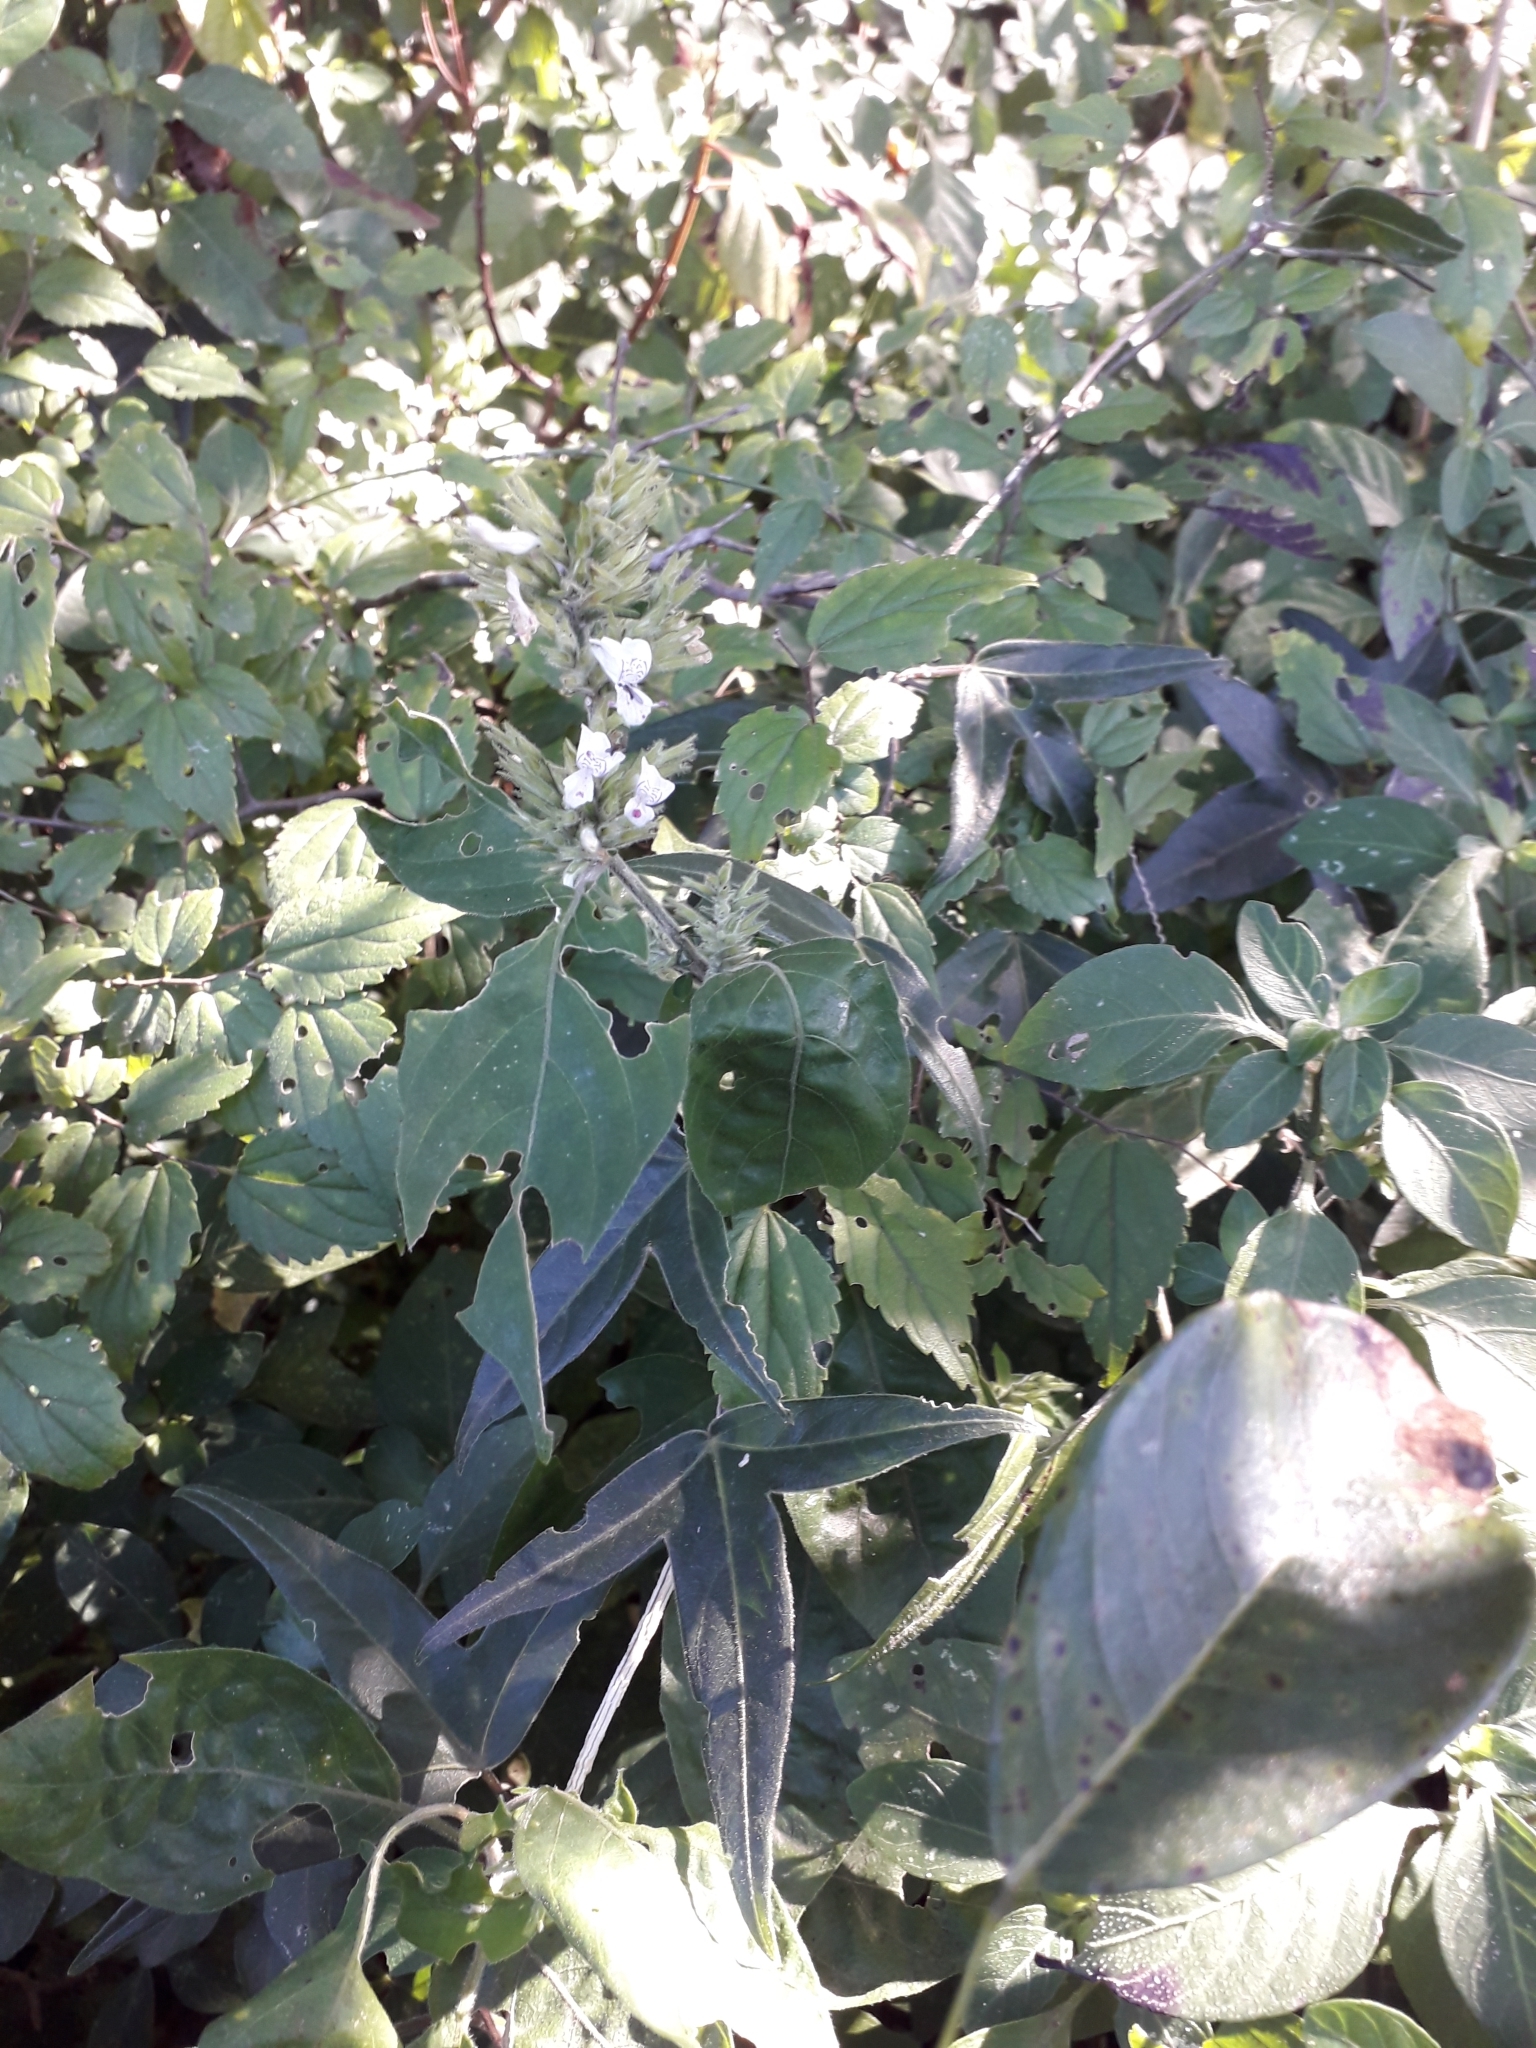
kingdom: Plantae
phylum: Tracheophyta
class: Magnoliopsida
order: Lamiales
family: Acanthaceae
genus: Hypoestes
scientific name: Hypoestes forskaolii
